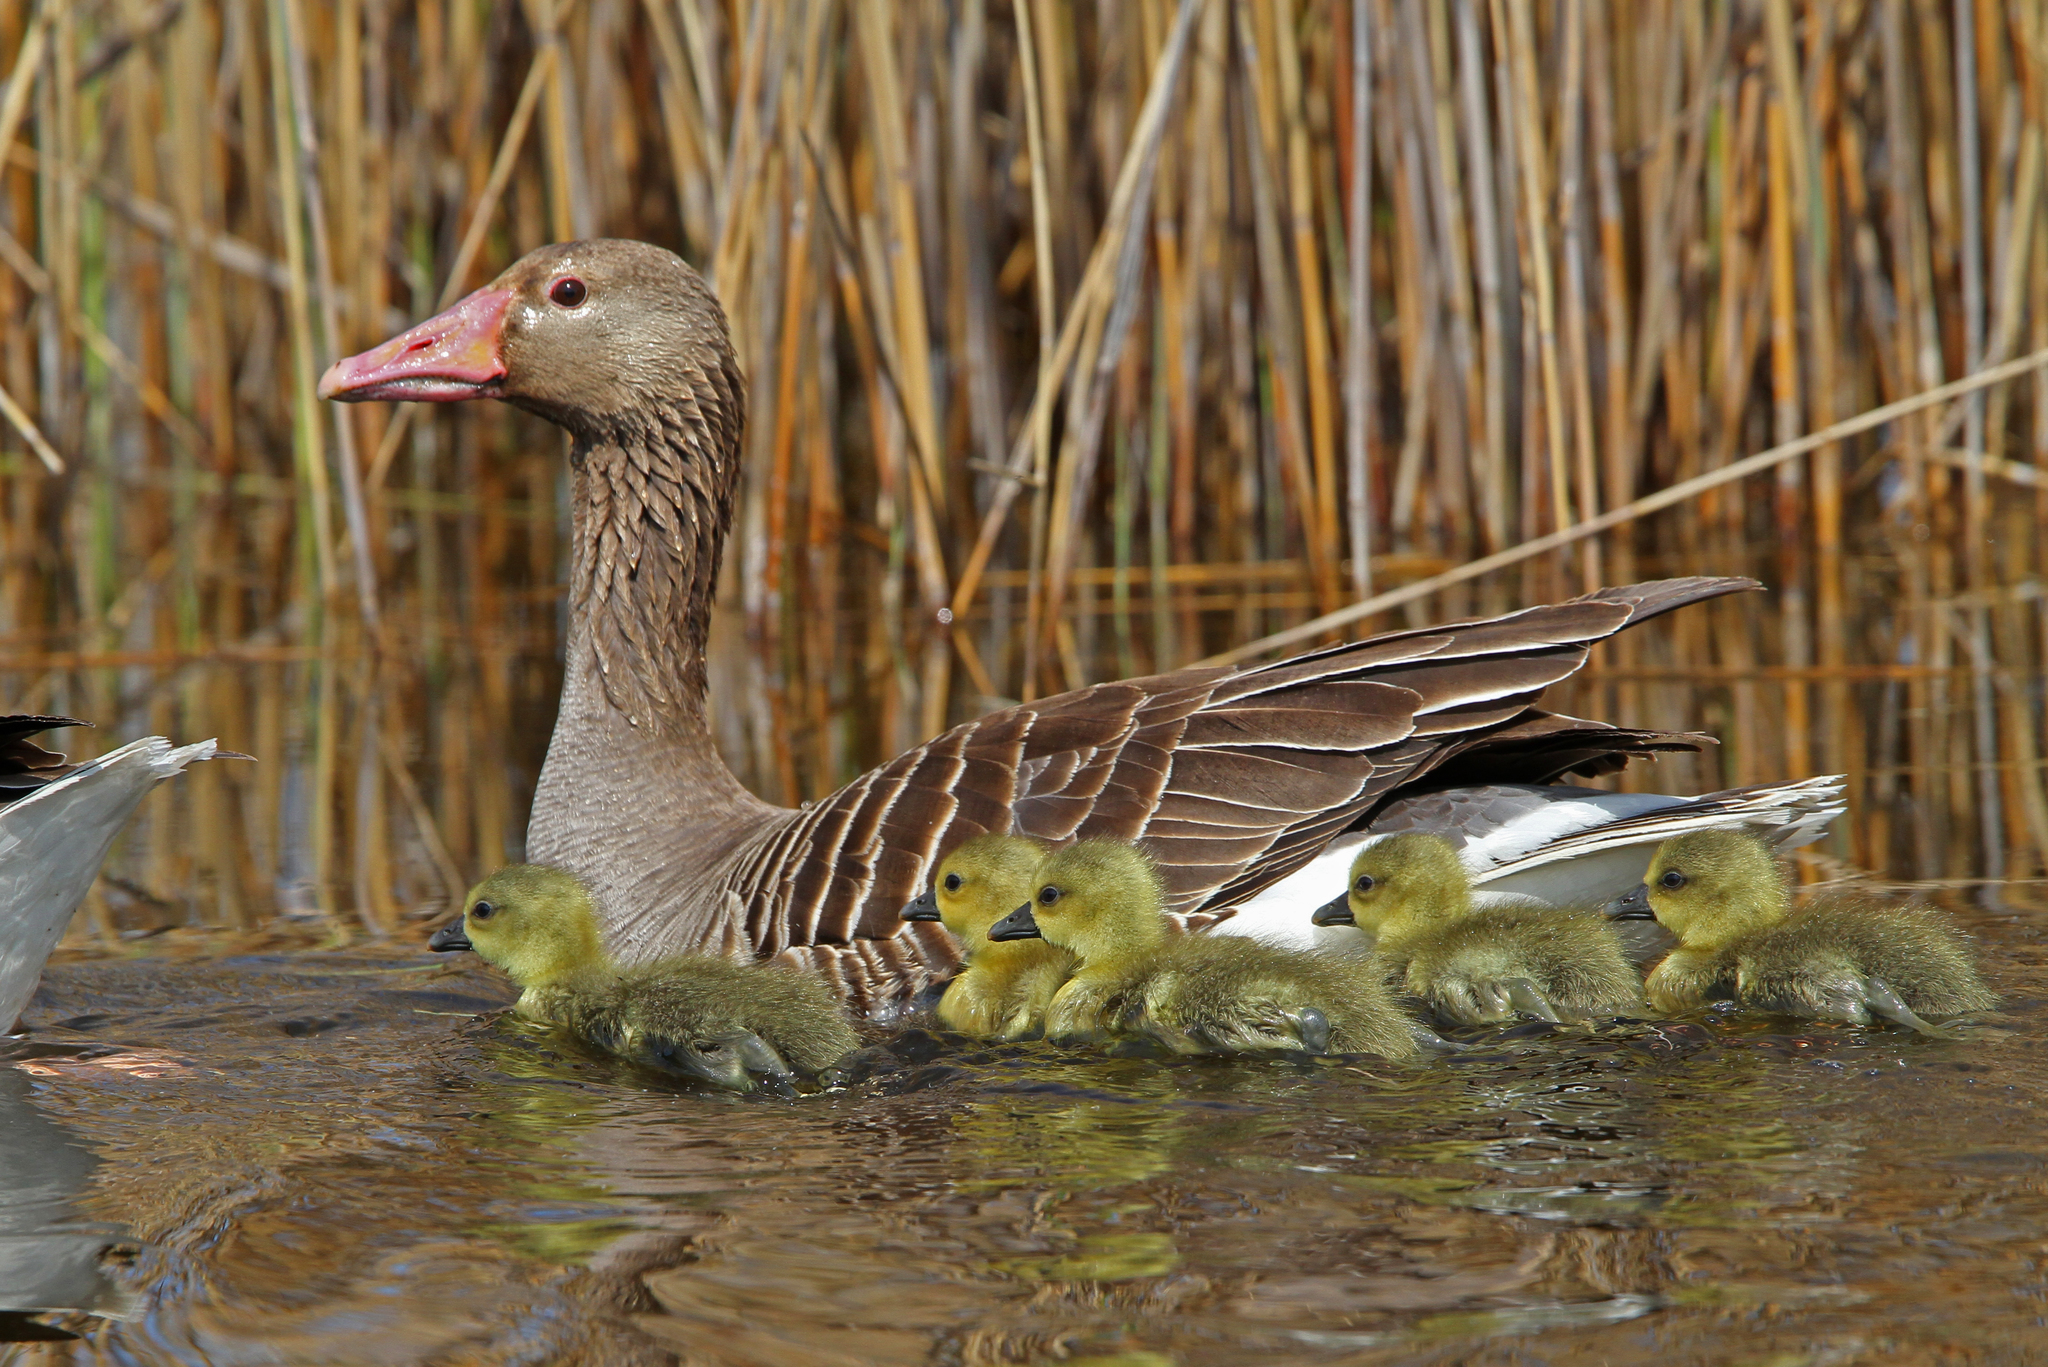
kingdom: Animalia
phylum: Chordata
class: Aves
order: Anseriformes
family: Anatidae
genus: Anser
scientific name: Anser anser
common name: Greylag goose
